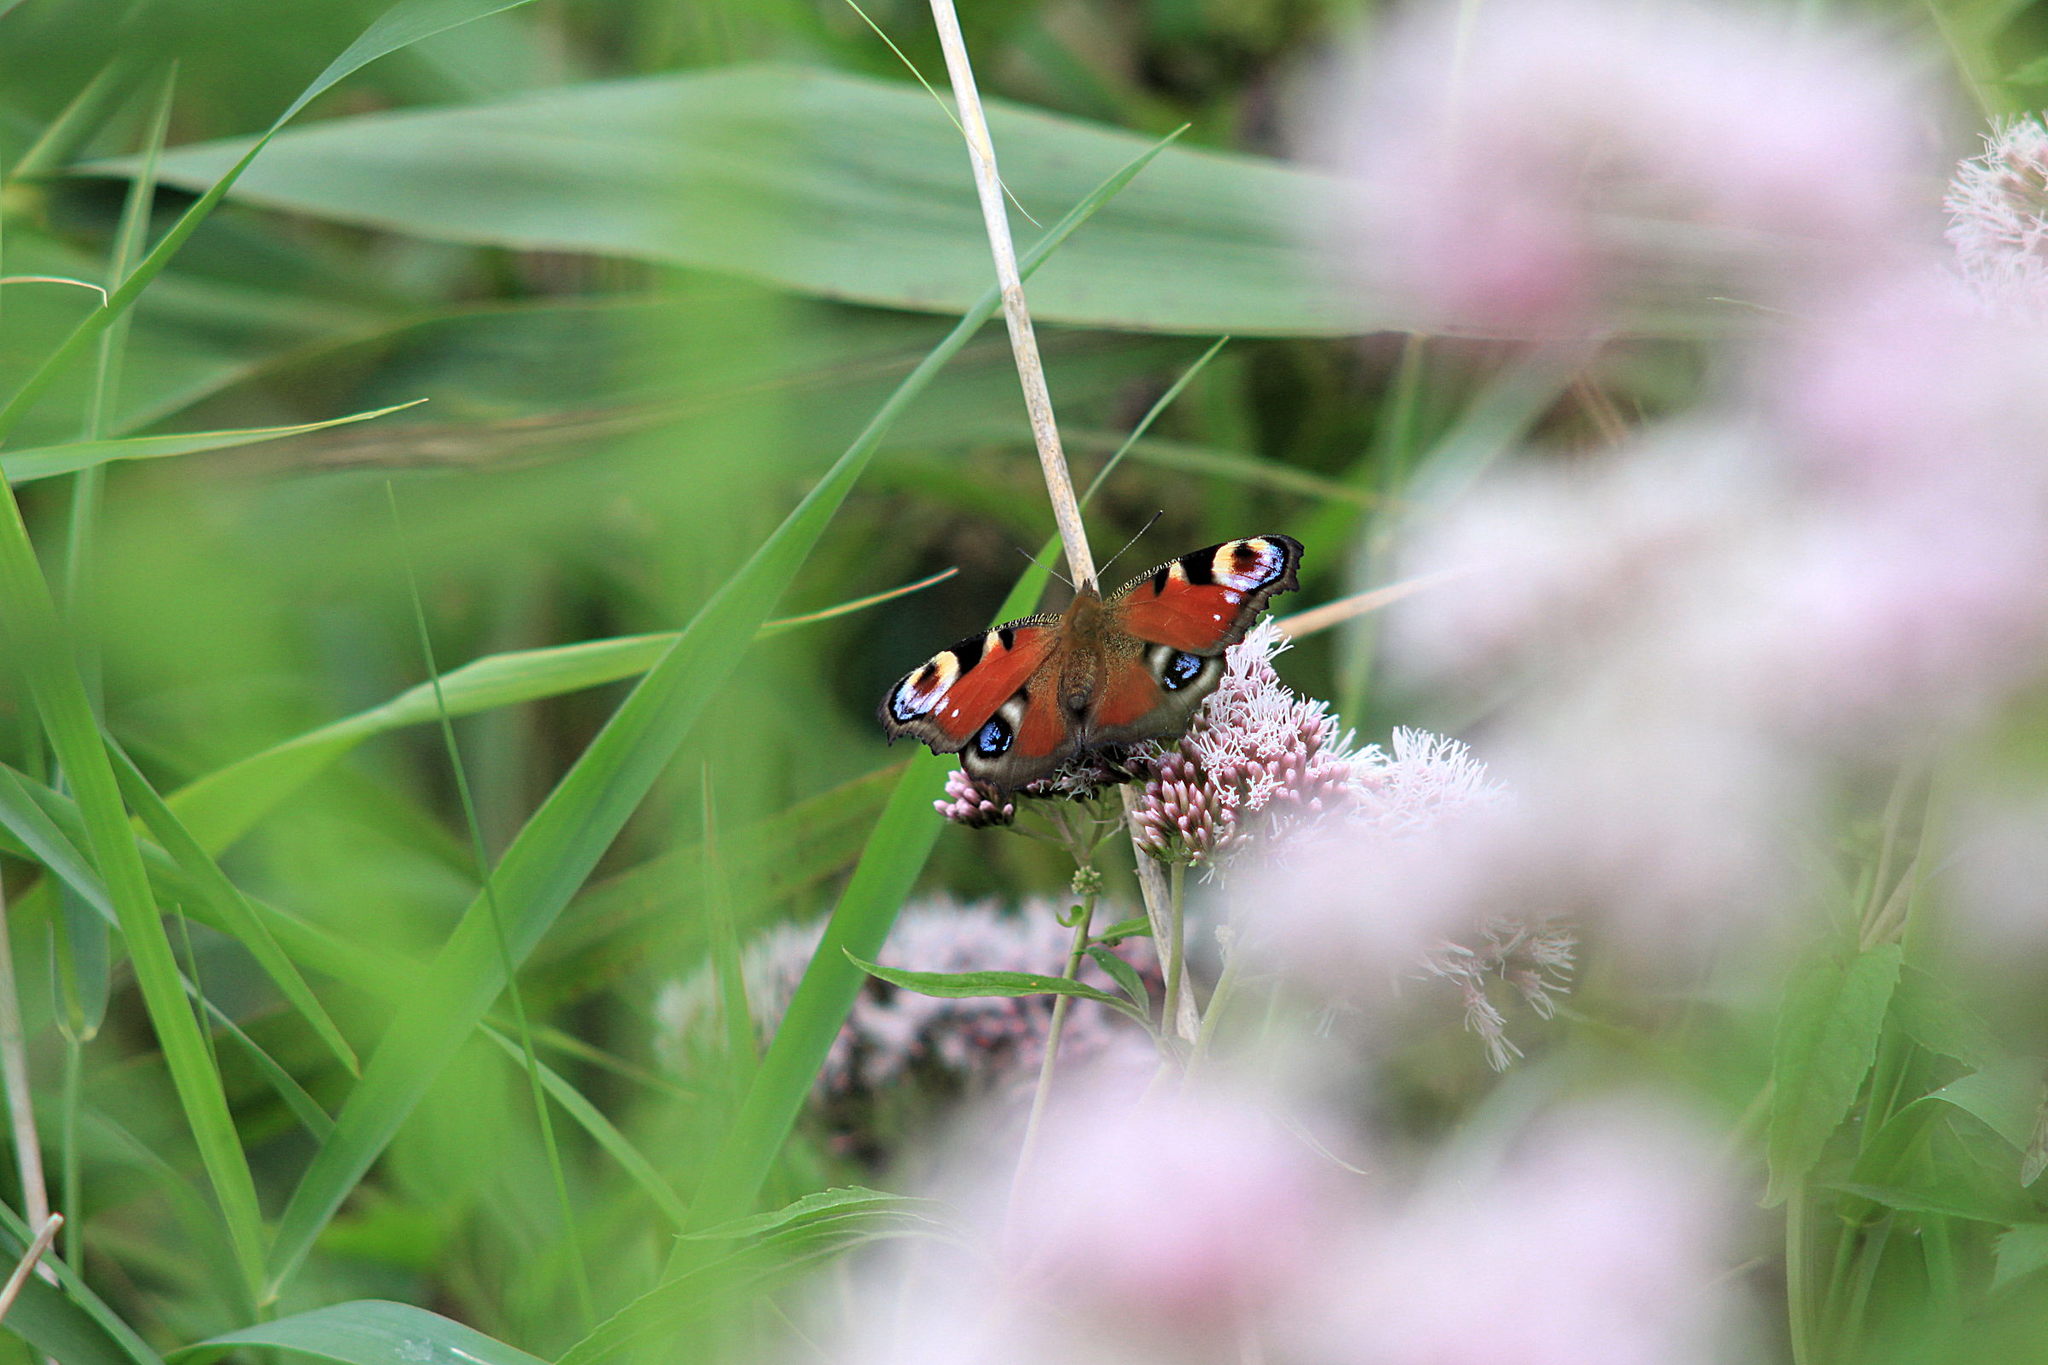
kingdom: Animalia
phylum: Arthropoda
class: Insecta
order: Lepidoptera
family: Nymphalidae
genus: Aglais
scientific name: Aglais io
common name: Peacock
